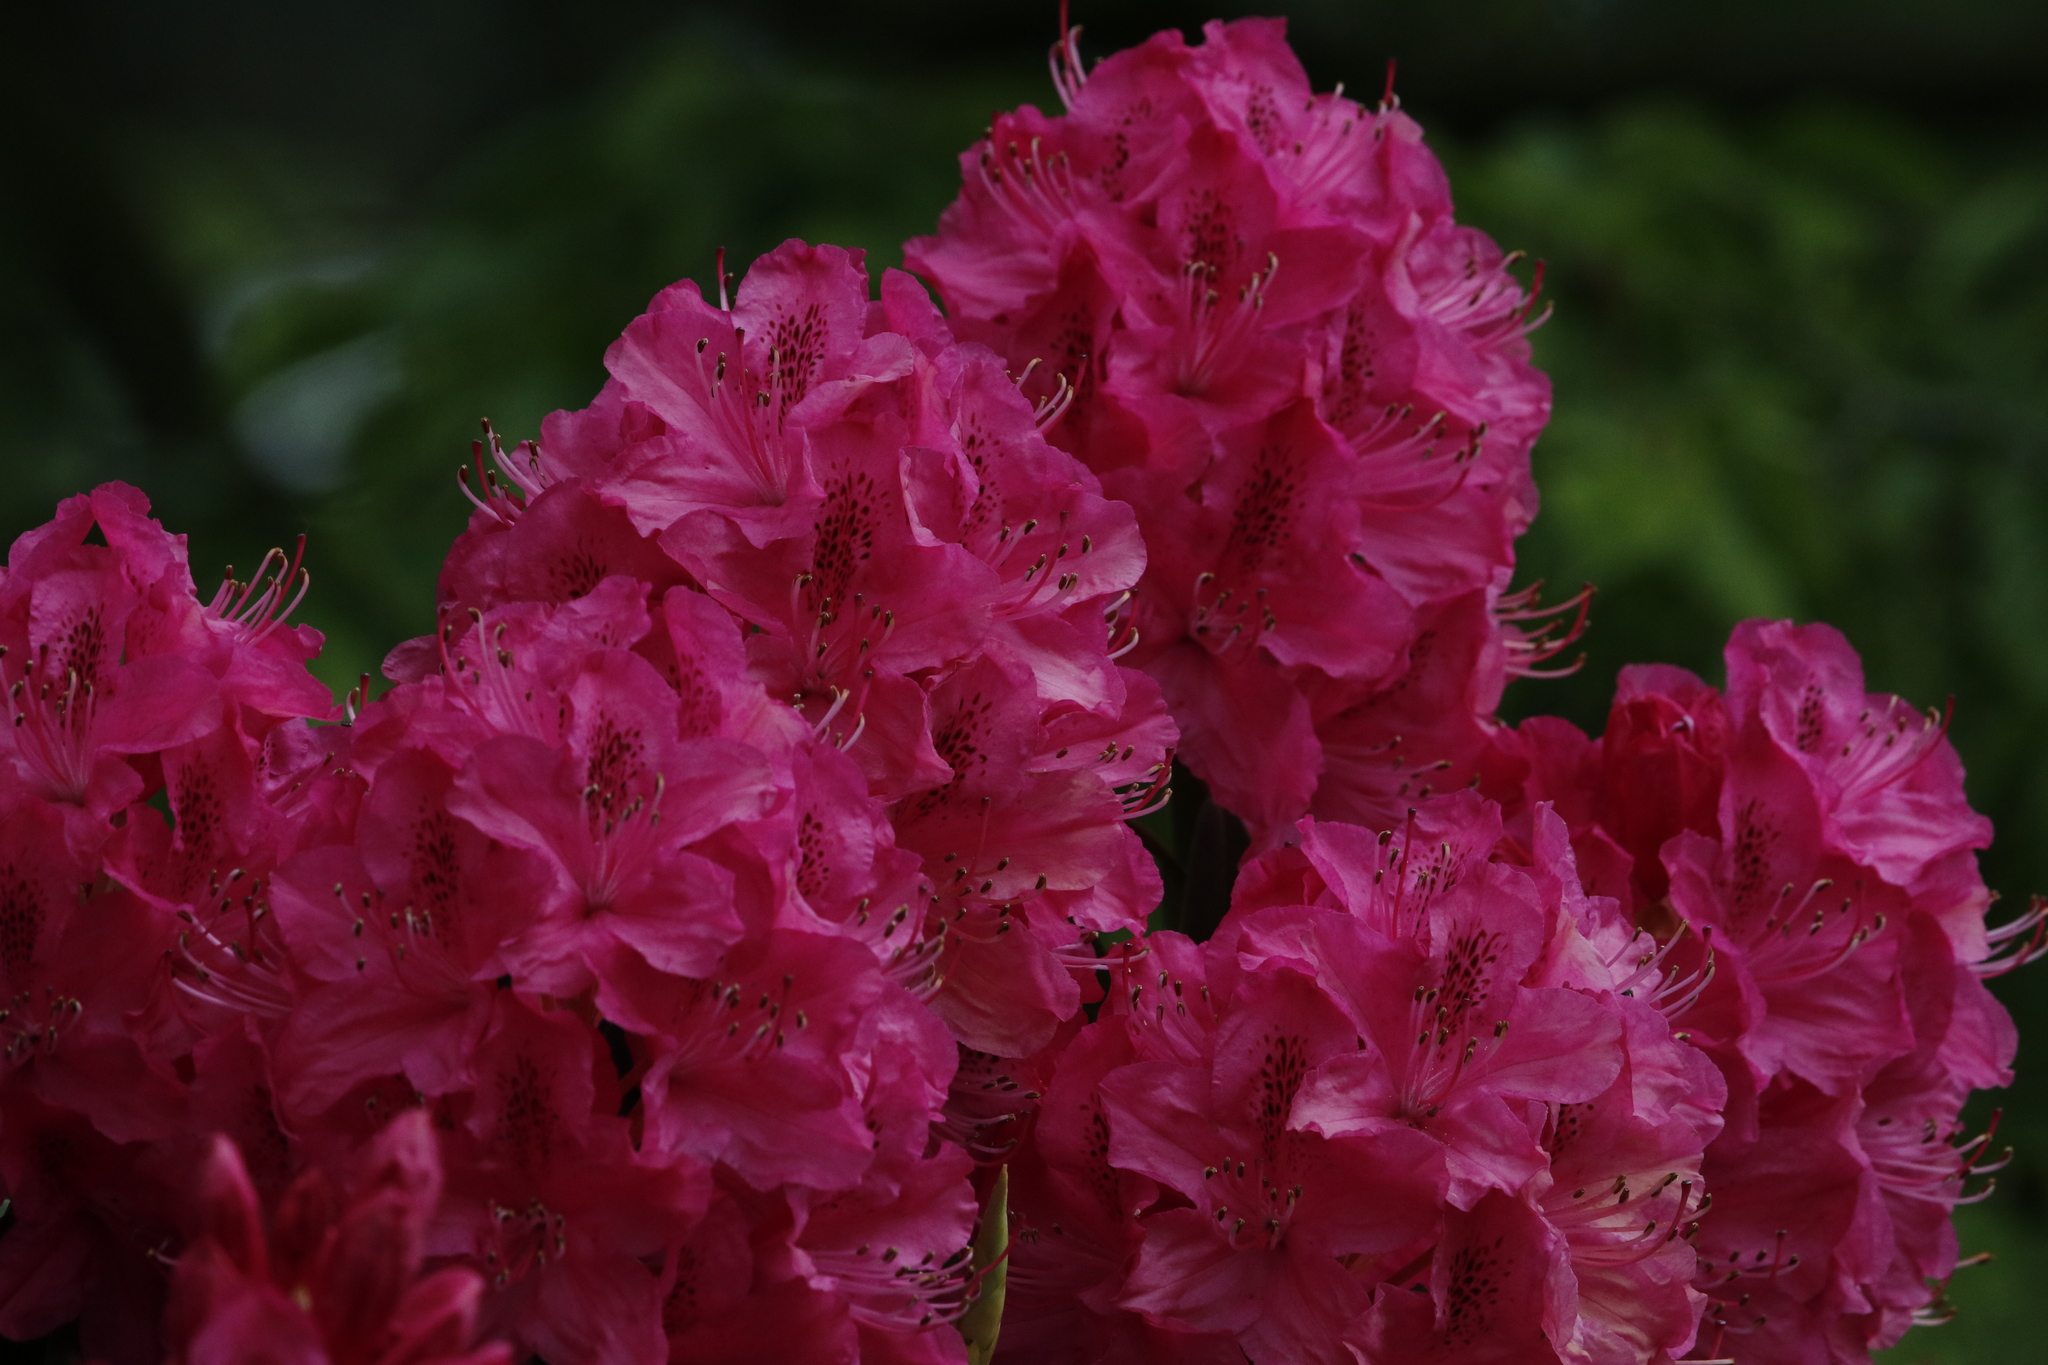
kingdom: Plantae
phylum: Tracheophyta
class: Magnoliopsida
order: Ericales
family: Ericaceae
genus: Rhododendron
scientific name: Rhododendron
